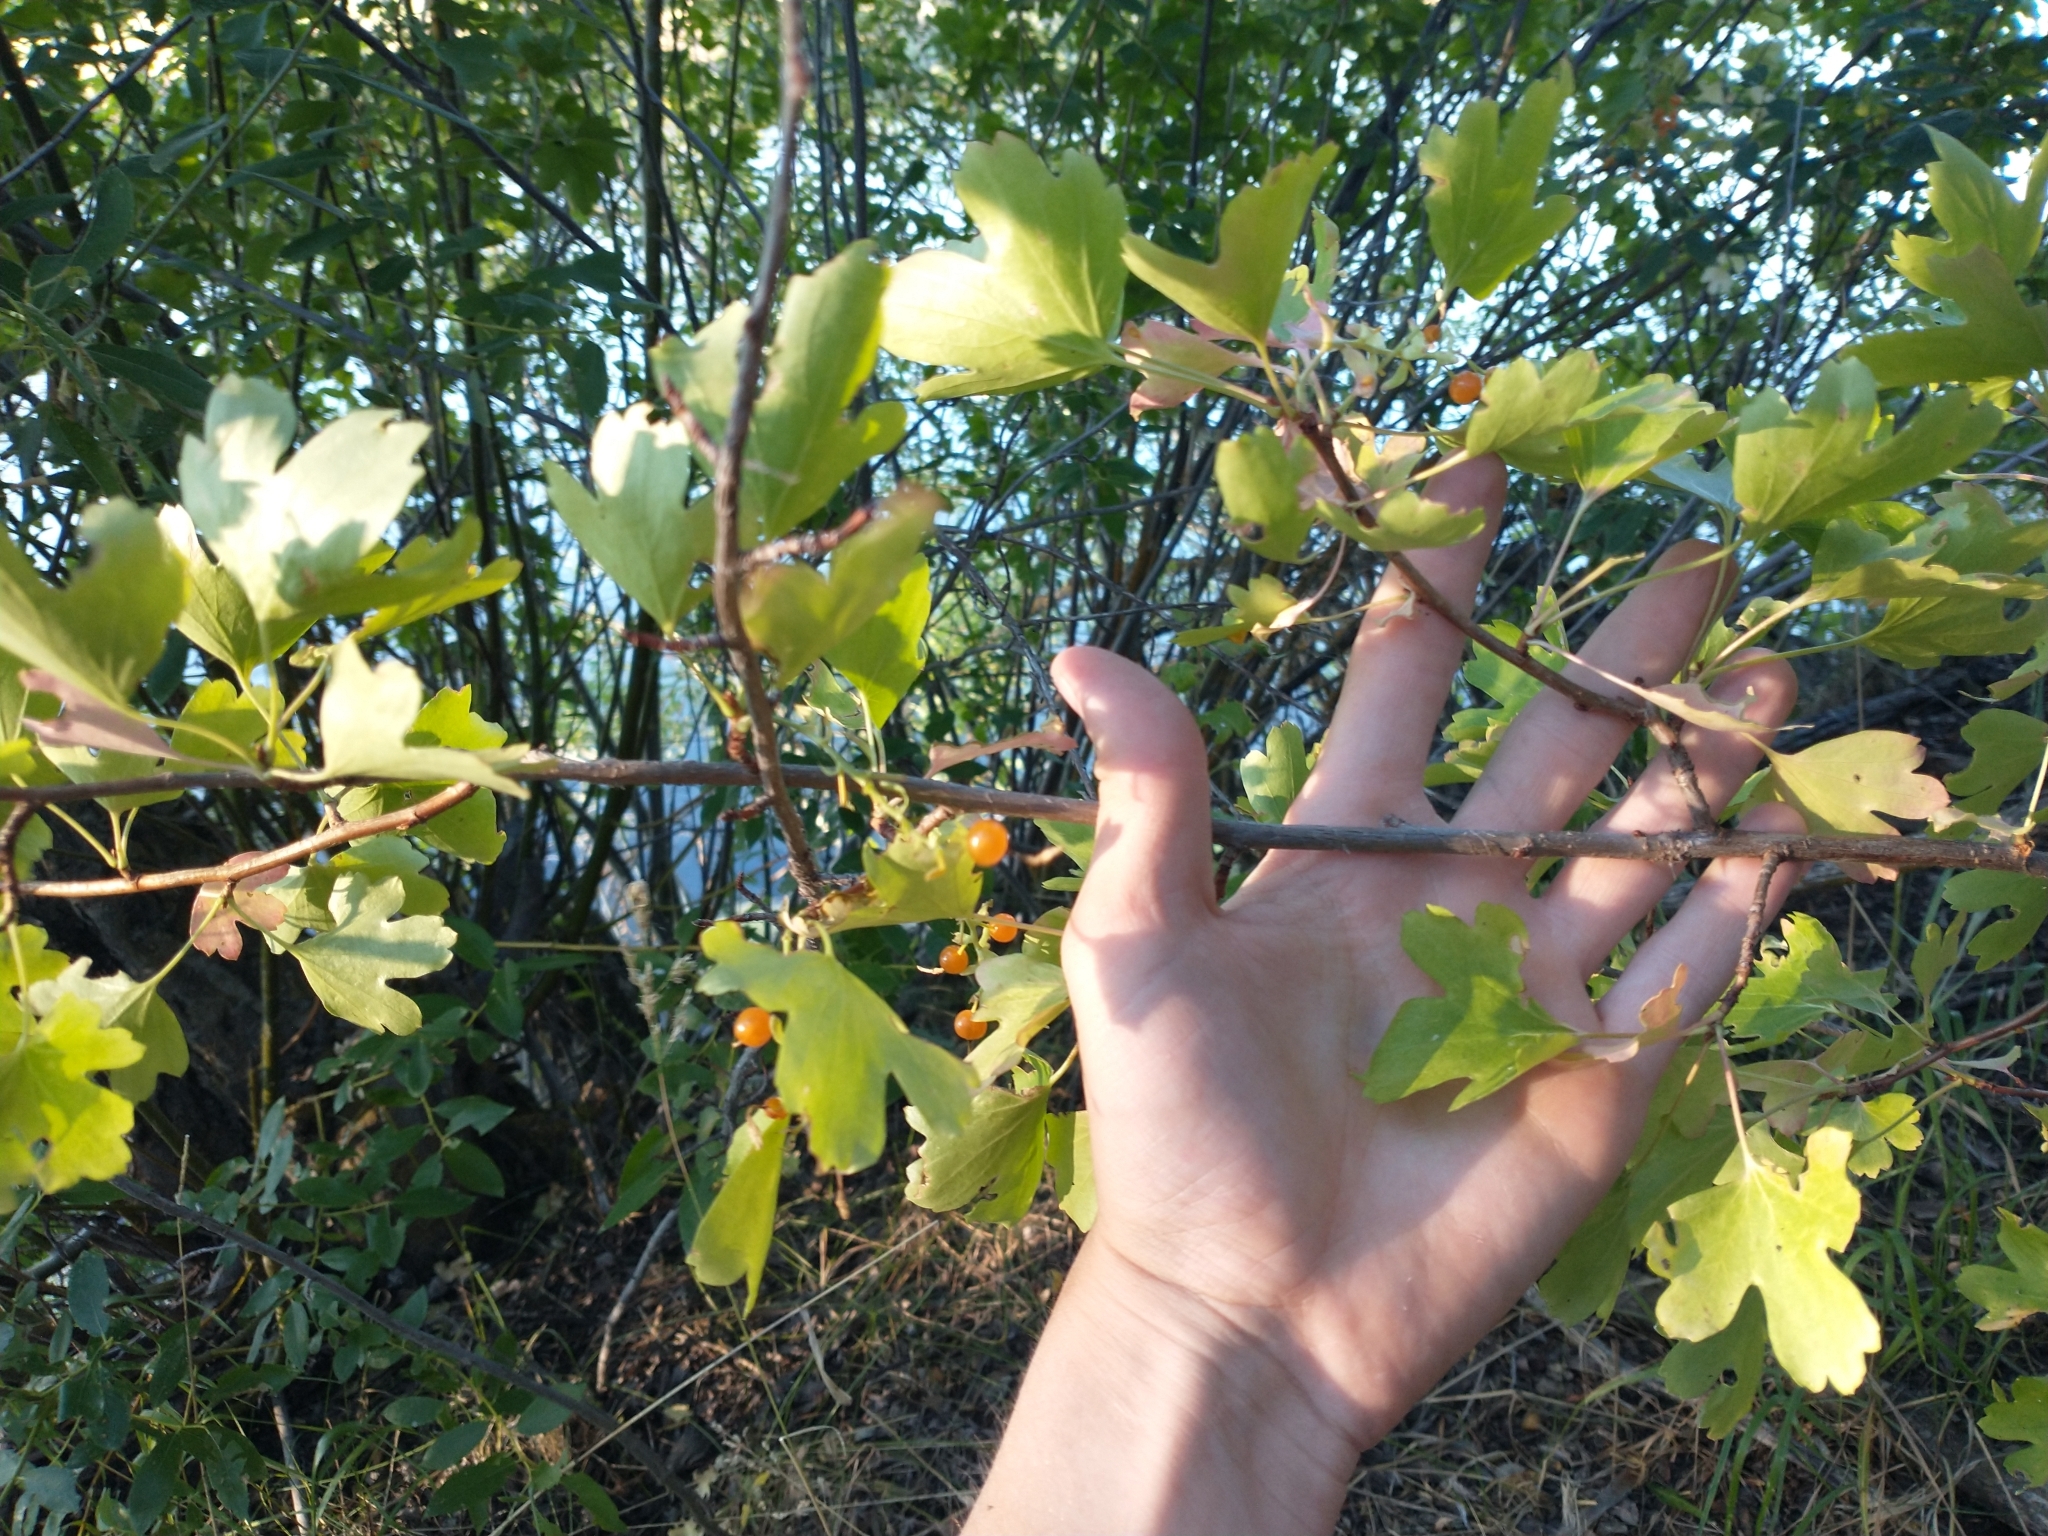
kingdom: Plantae
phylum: Tracheophyta
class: Magnoliopsida
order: Saxifragales
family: Grossulariaceae
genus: Ribes
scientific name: Ribes aureum
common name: Golden currant
